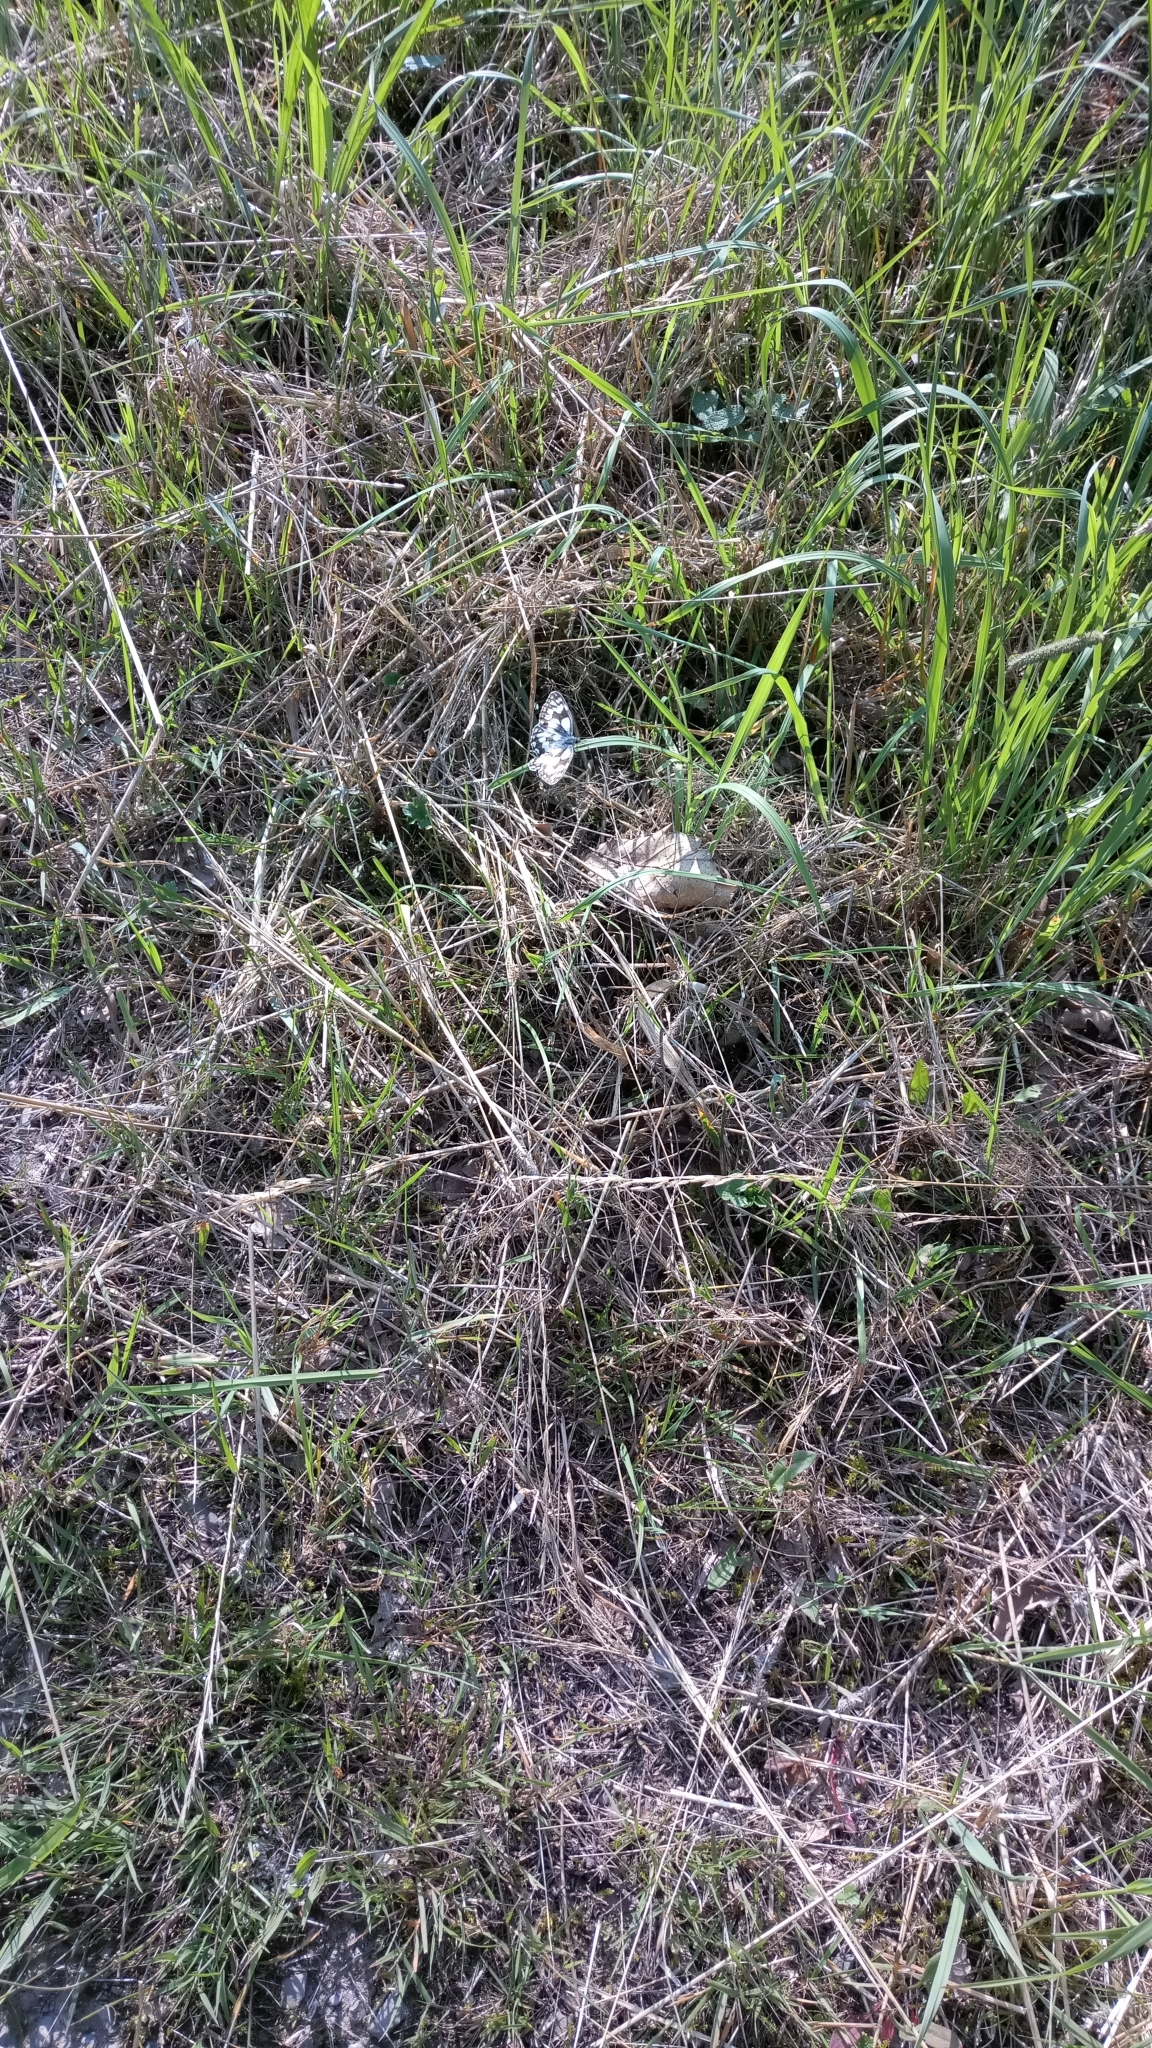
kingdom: Animalia
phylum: Arthropoda
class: Insecta
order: Lepidoptera
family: Nymphalidae
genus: Melanargia
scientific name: Melanargia galathea
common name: Marbled white
